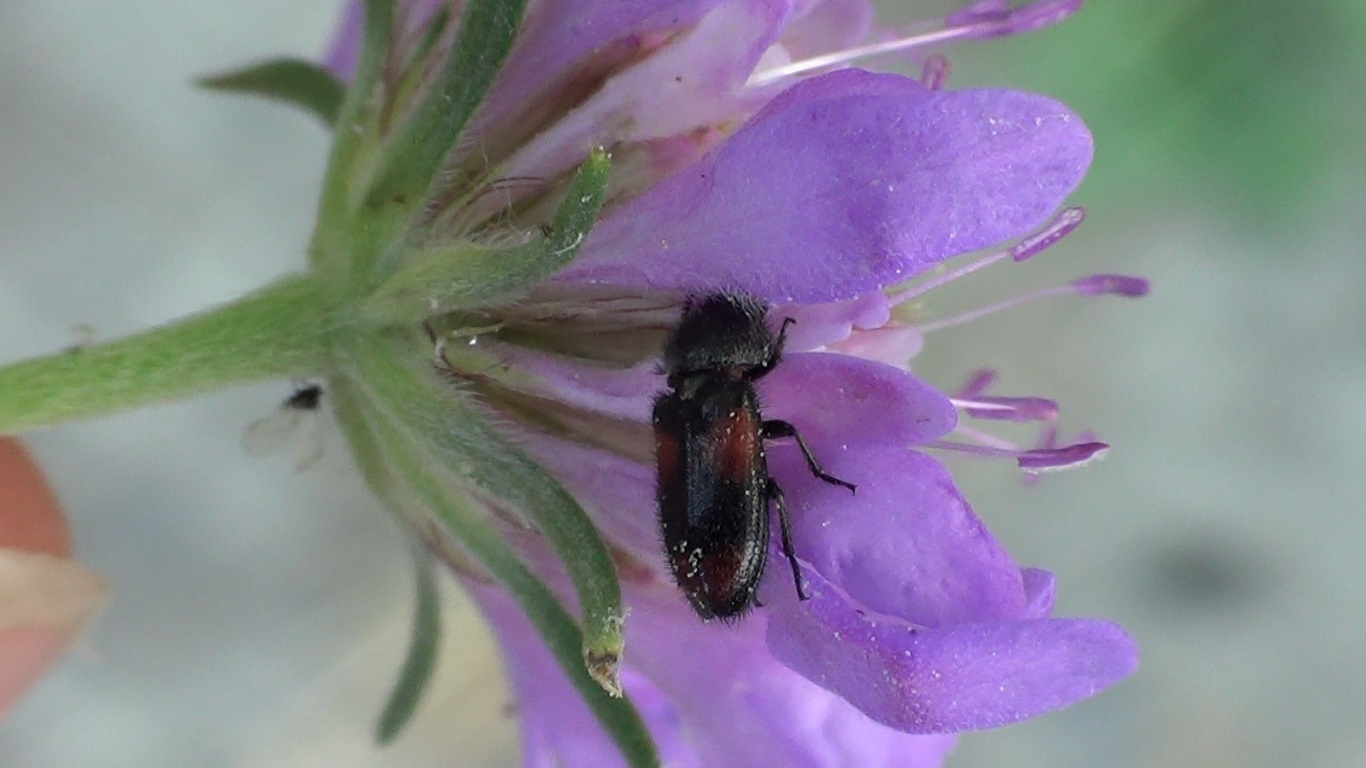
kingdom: Animalia
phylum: Arthropoda
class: Insecta
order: Coleoptera
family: Melyridae
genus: Divales
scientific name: Divales bipustulatus
